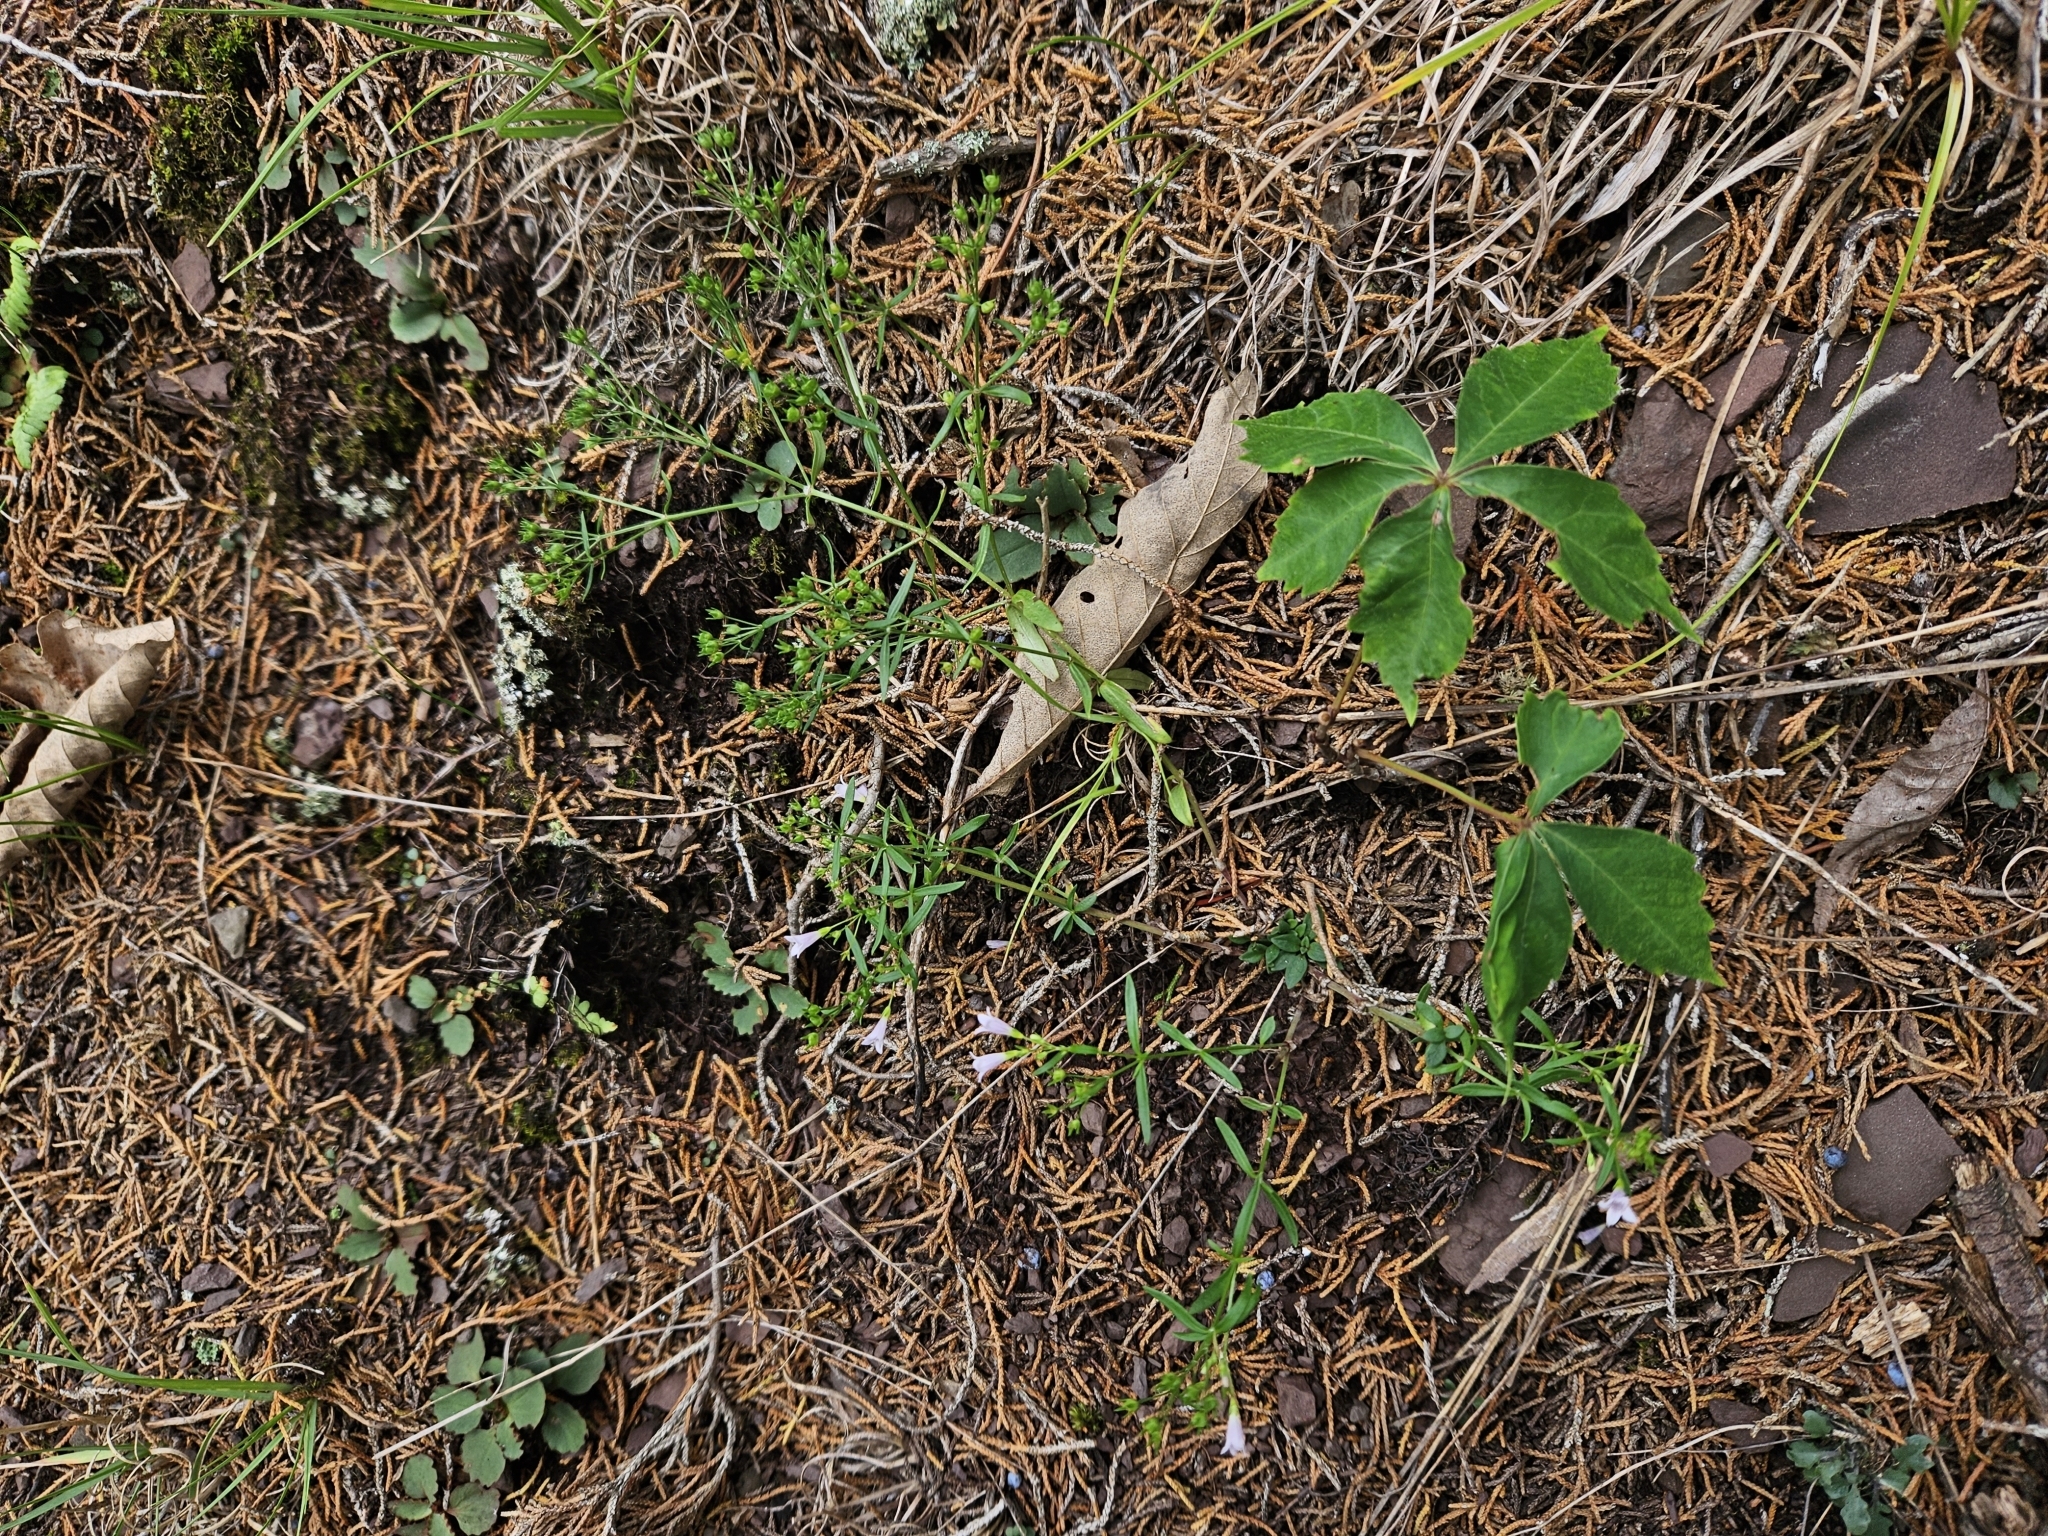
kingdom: Plantae
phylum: Tracheophyta
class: Magnoliopsida
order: Gentianales
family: Rubiaceae
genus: Houstonia
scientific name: Houstonia longifolia
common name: Long-leaved bluets
